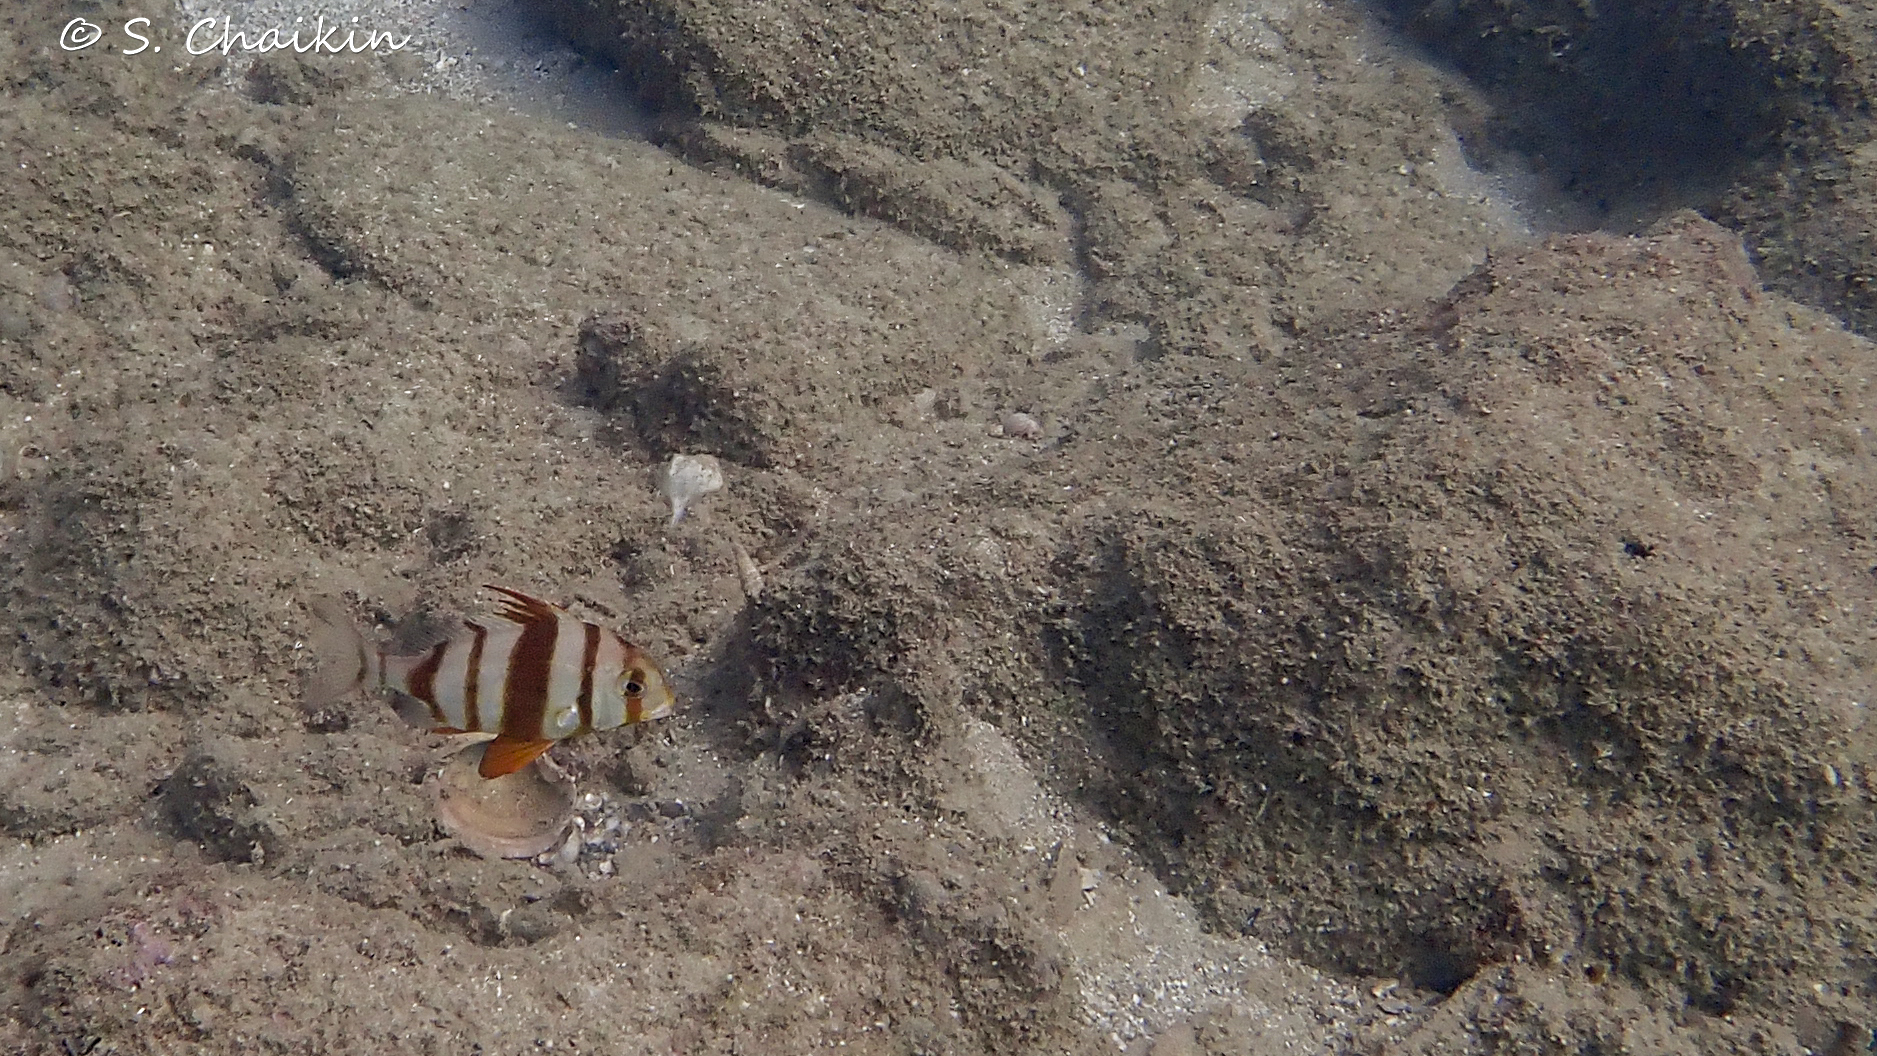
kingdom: Animalia
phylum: Chordata
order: Perciformes
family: Sparidae
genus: Pagrus
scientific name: Pagrus auriga
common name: Murudai
